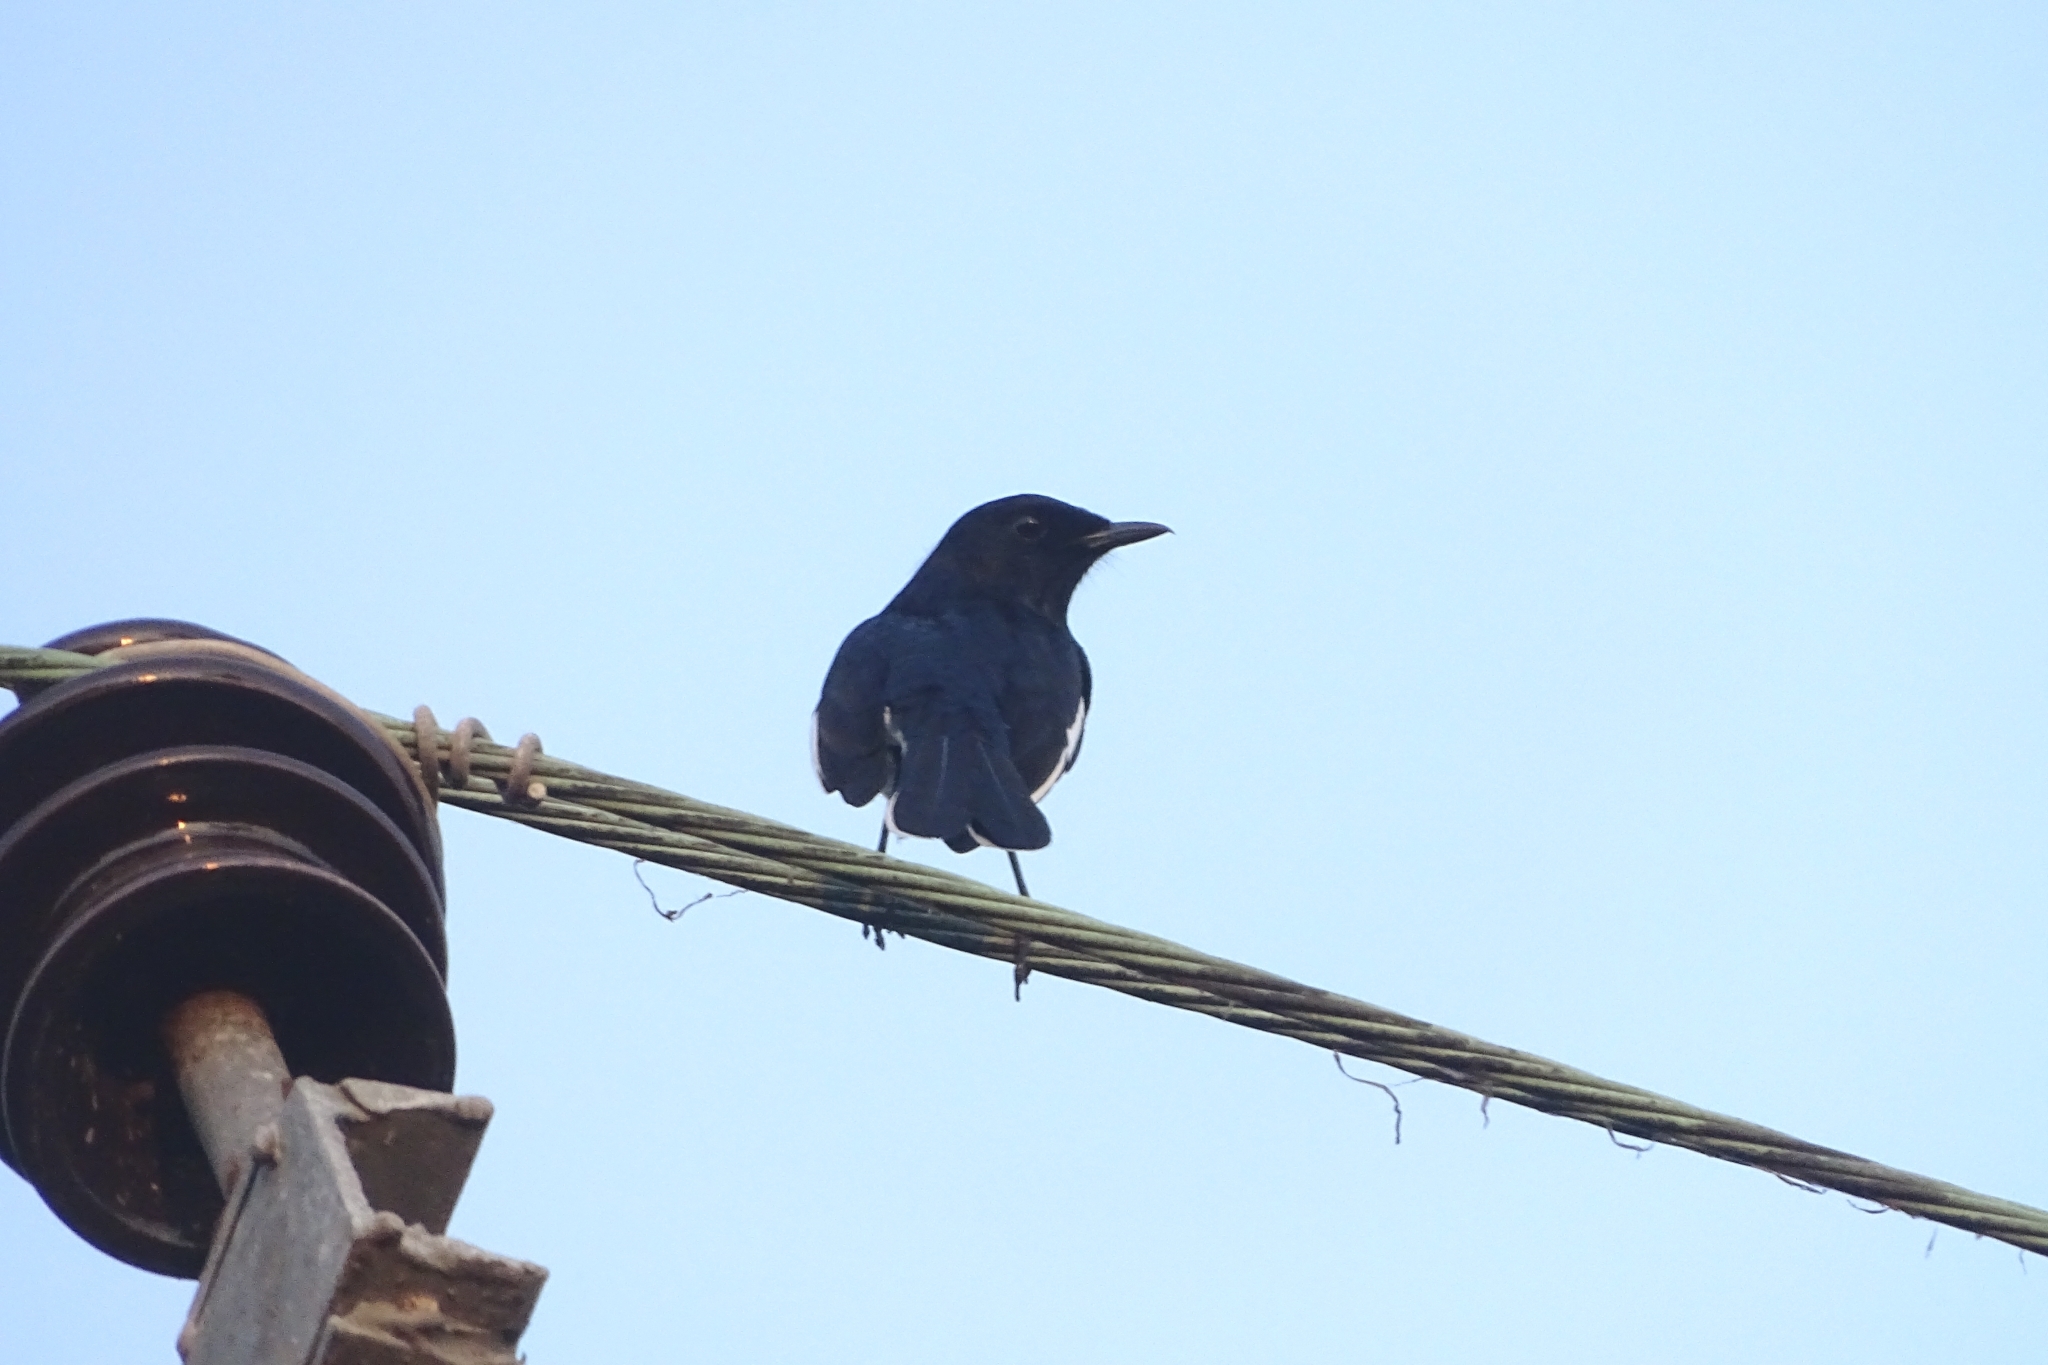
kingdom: Animalia
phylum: Chordata
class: Aves
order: Passeriformes
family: Muscicapidae
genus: Copsychus
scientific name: Copsychus saularis
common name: Oriental magpie-robin
